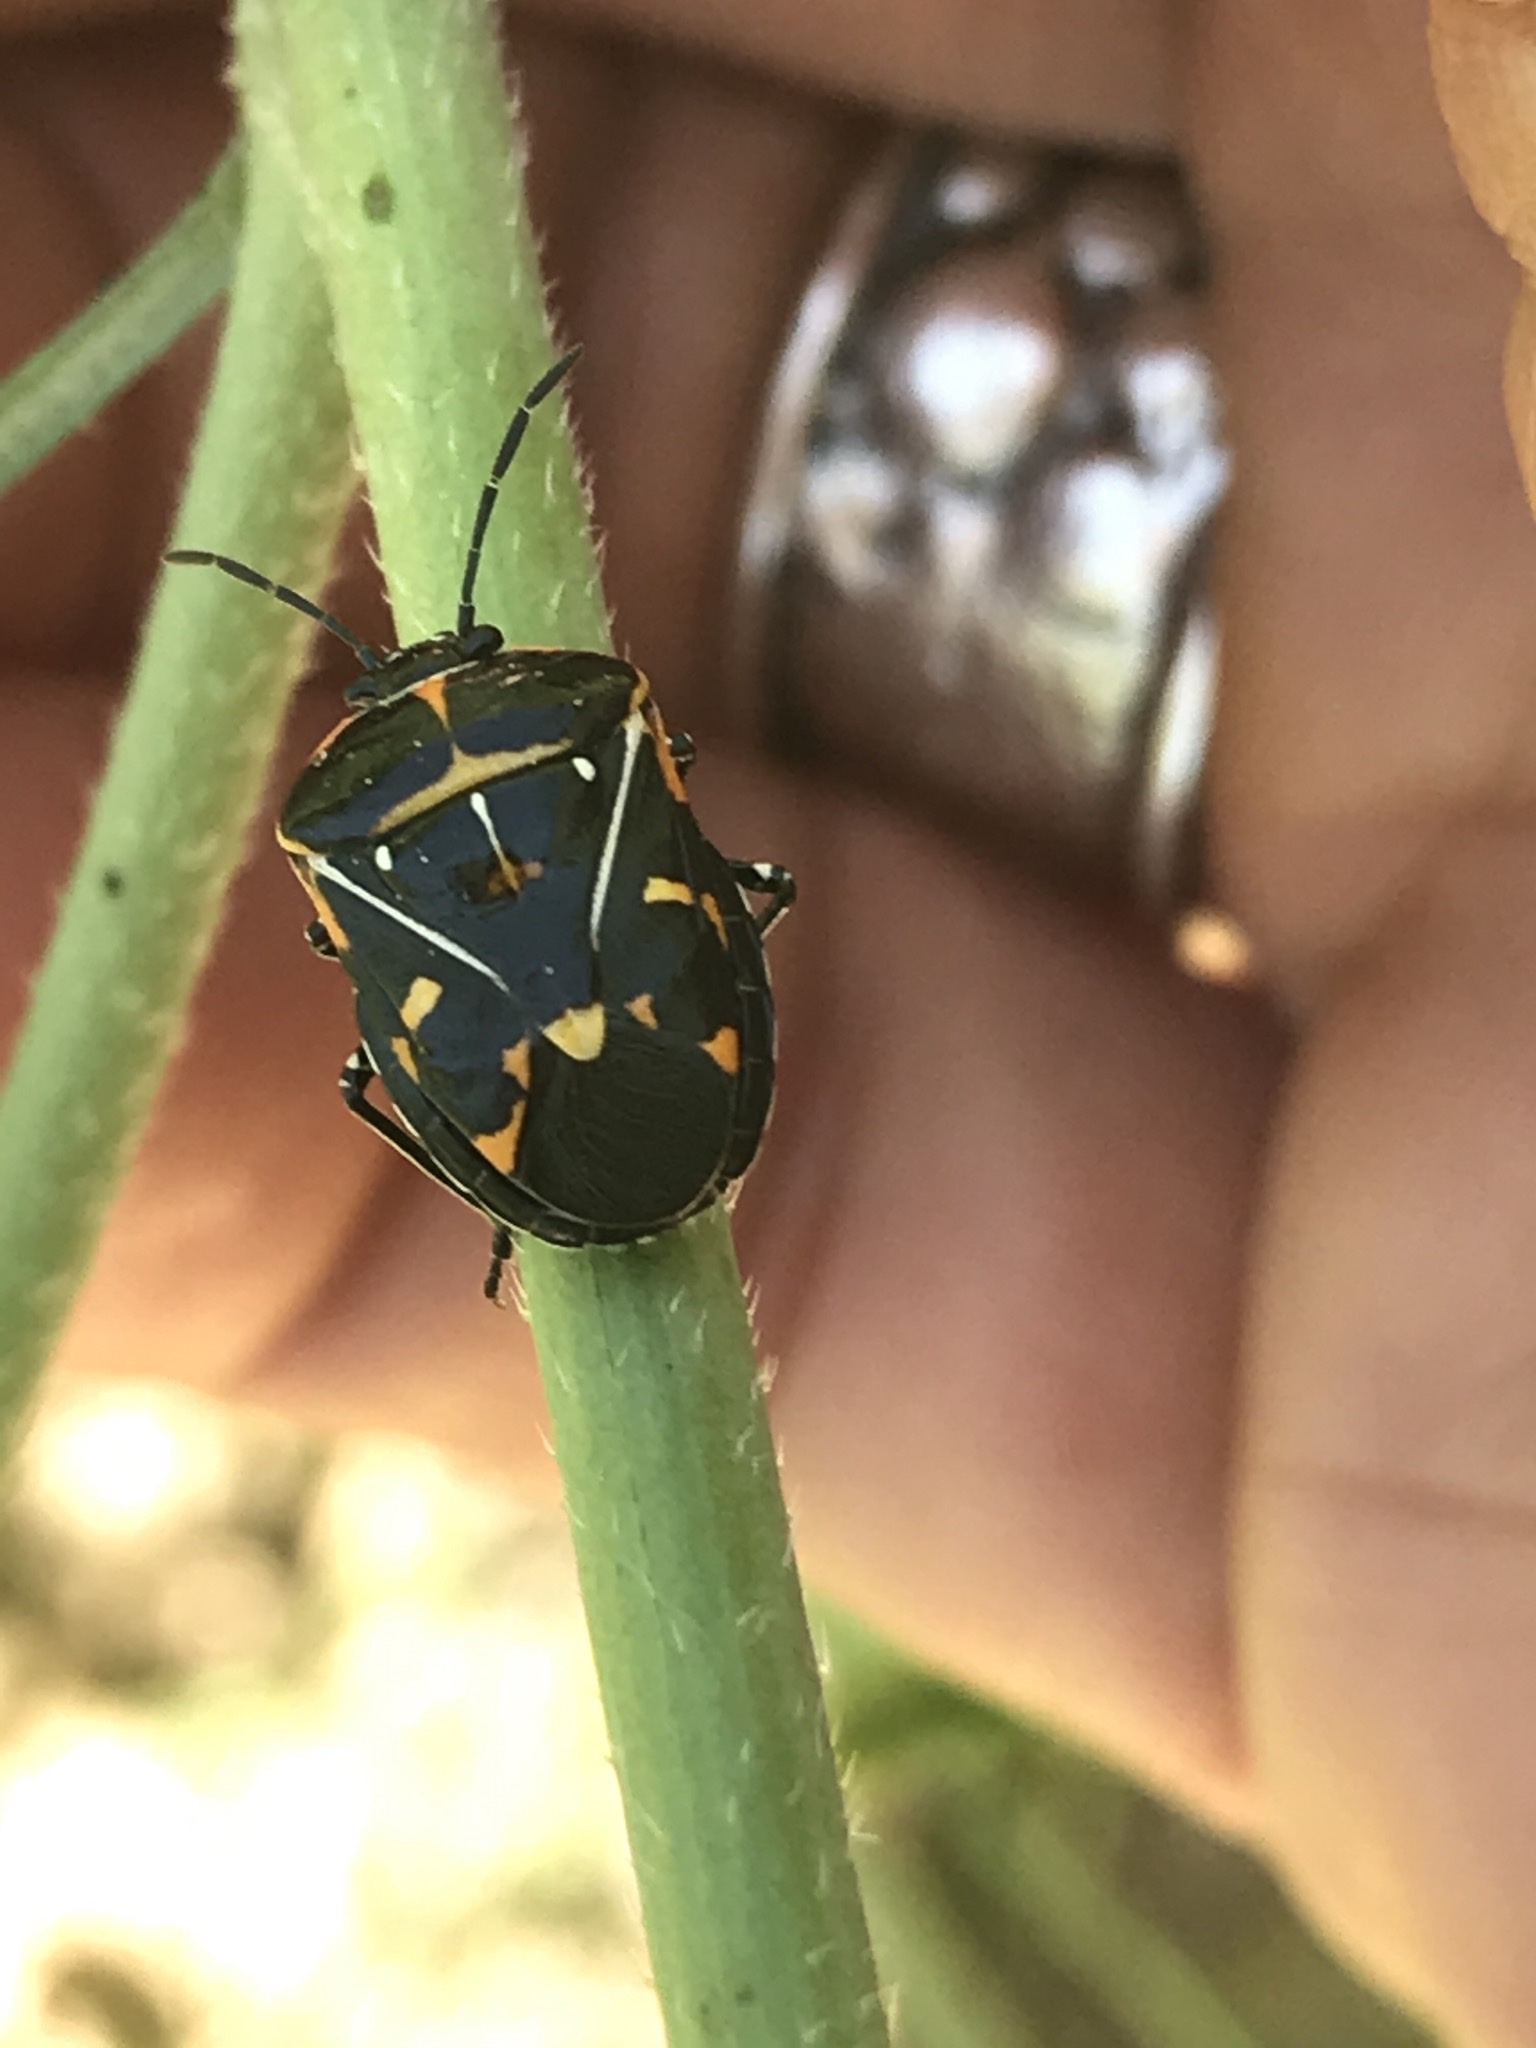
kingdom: Animalia
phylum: Arthropoda
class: Insecta
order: Hemiptera
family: Pentatomidae
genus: Murgantia
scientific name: Murgantia histrionica
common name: Harlequin bug
